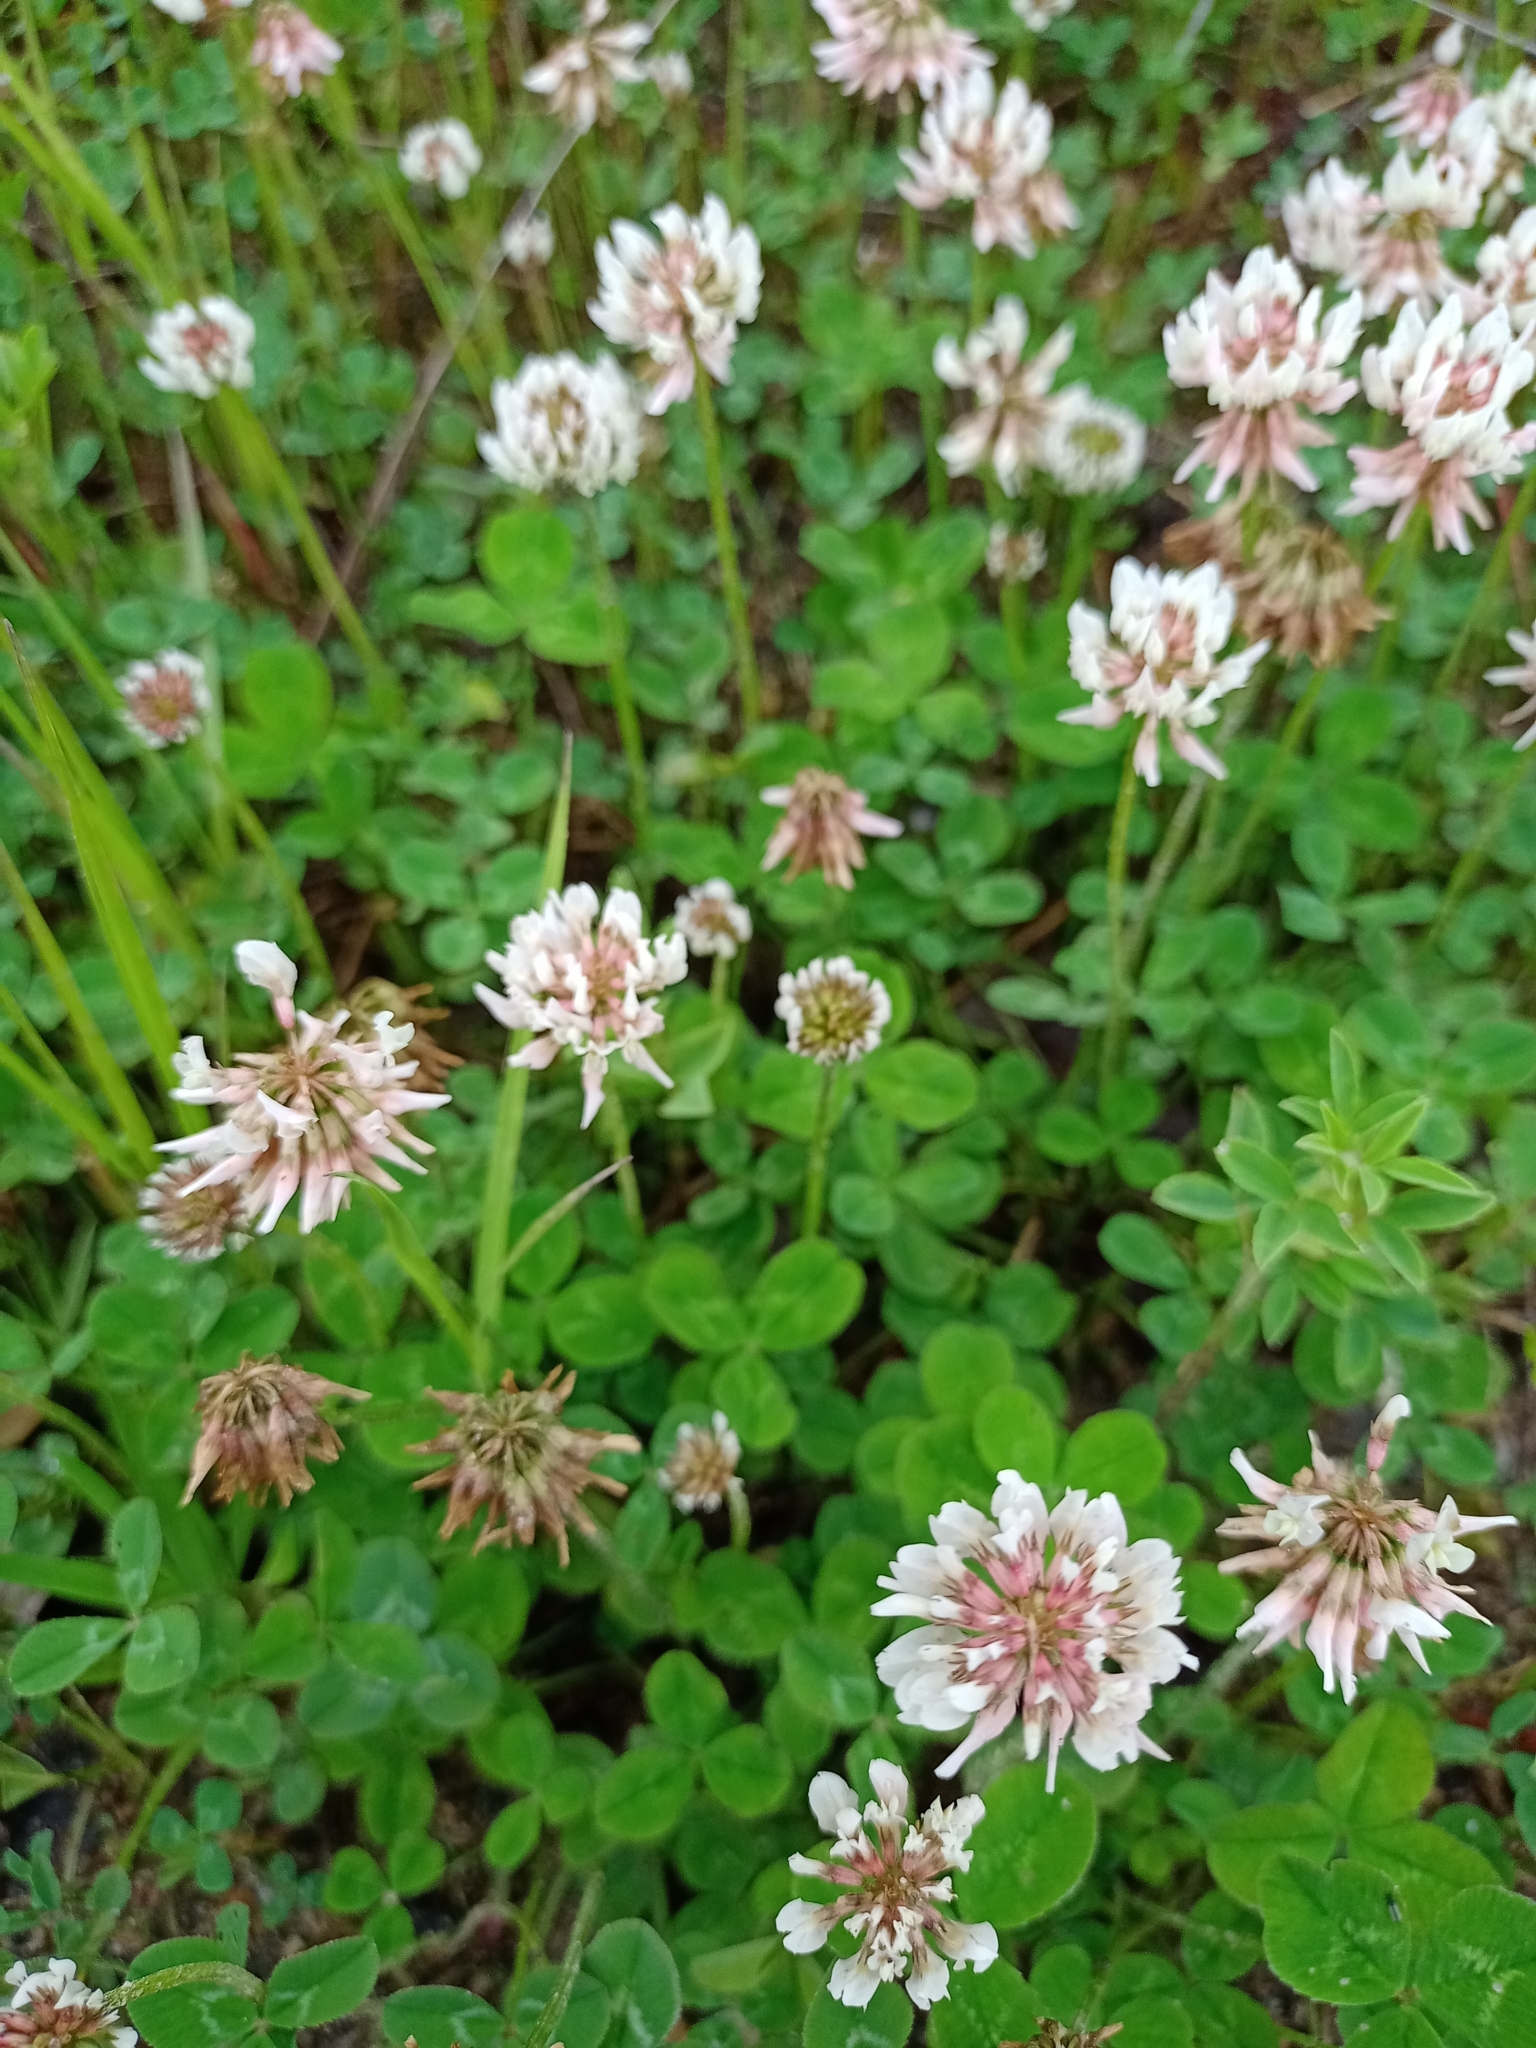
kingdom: Plantae
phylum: Tracheophyta
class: Magnoliopsida
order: Fabales
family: Fabaceae
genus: Trifolium
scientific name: Trifolium repens
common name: White clover
